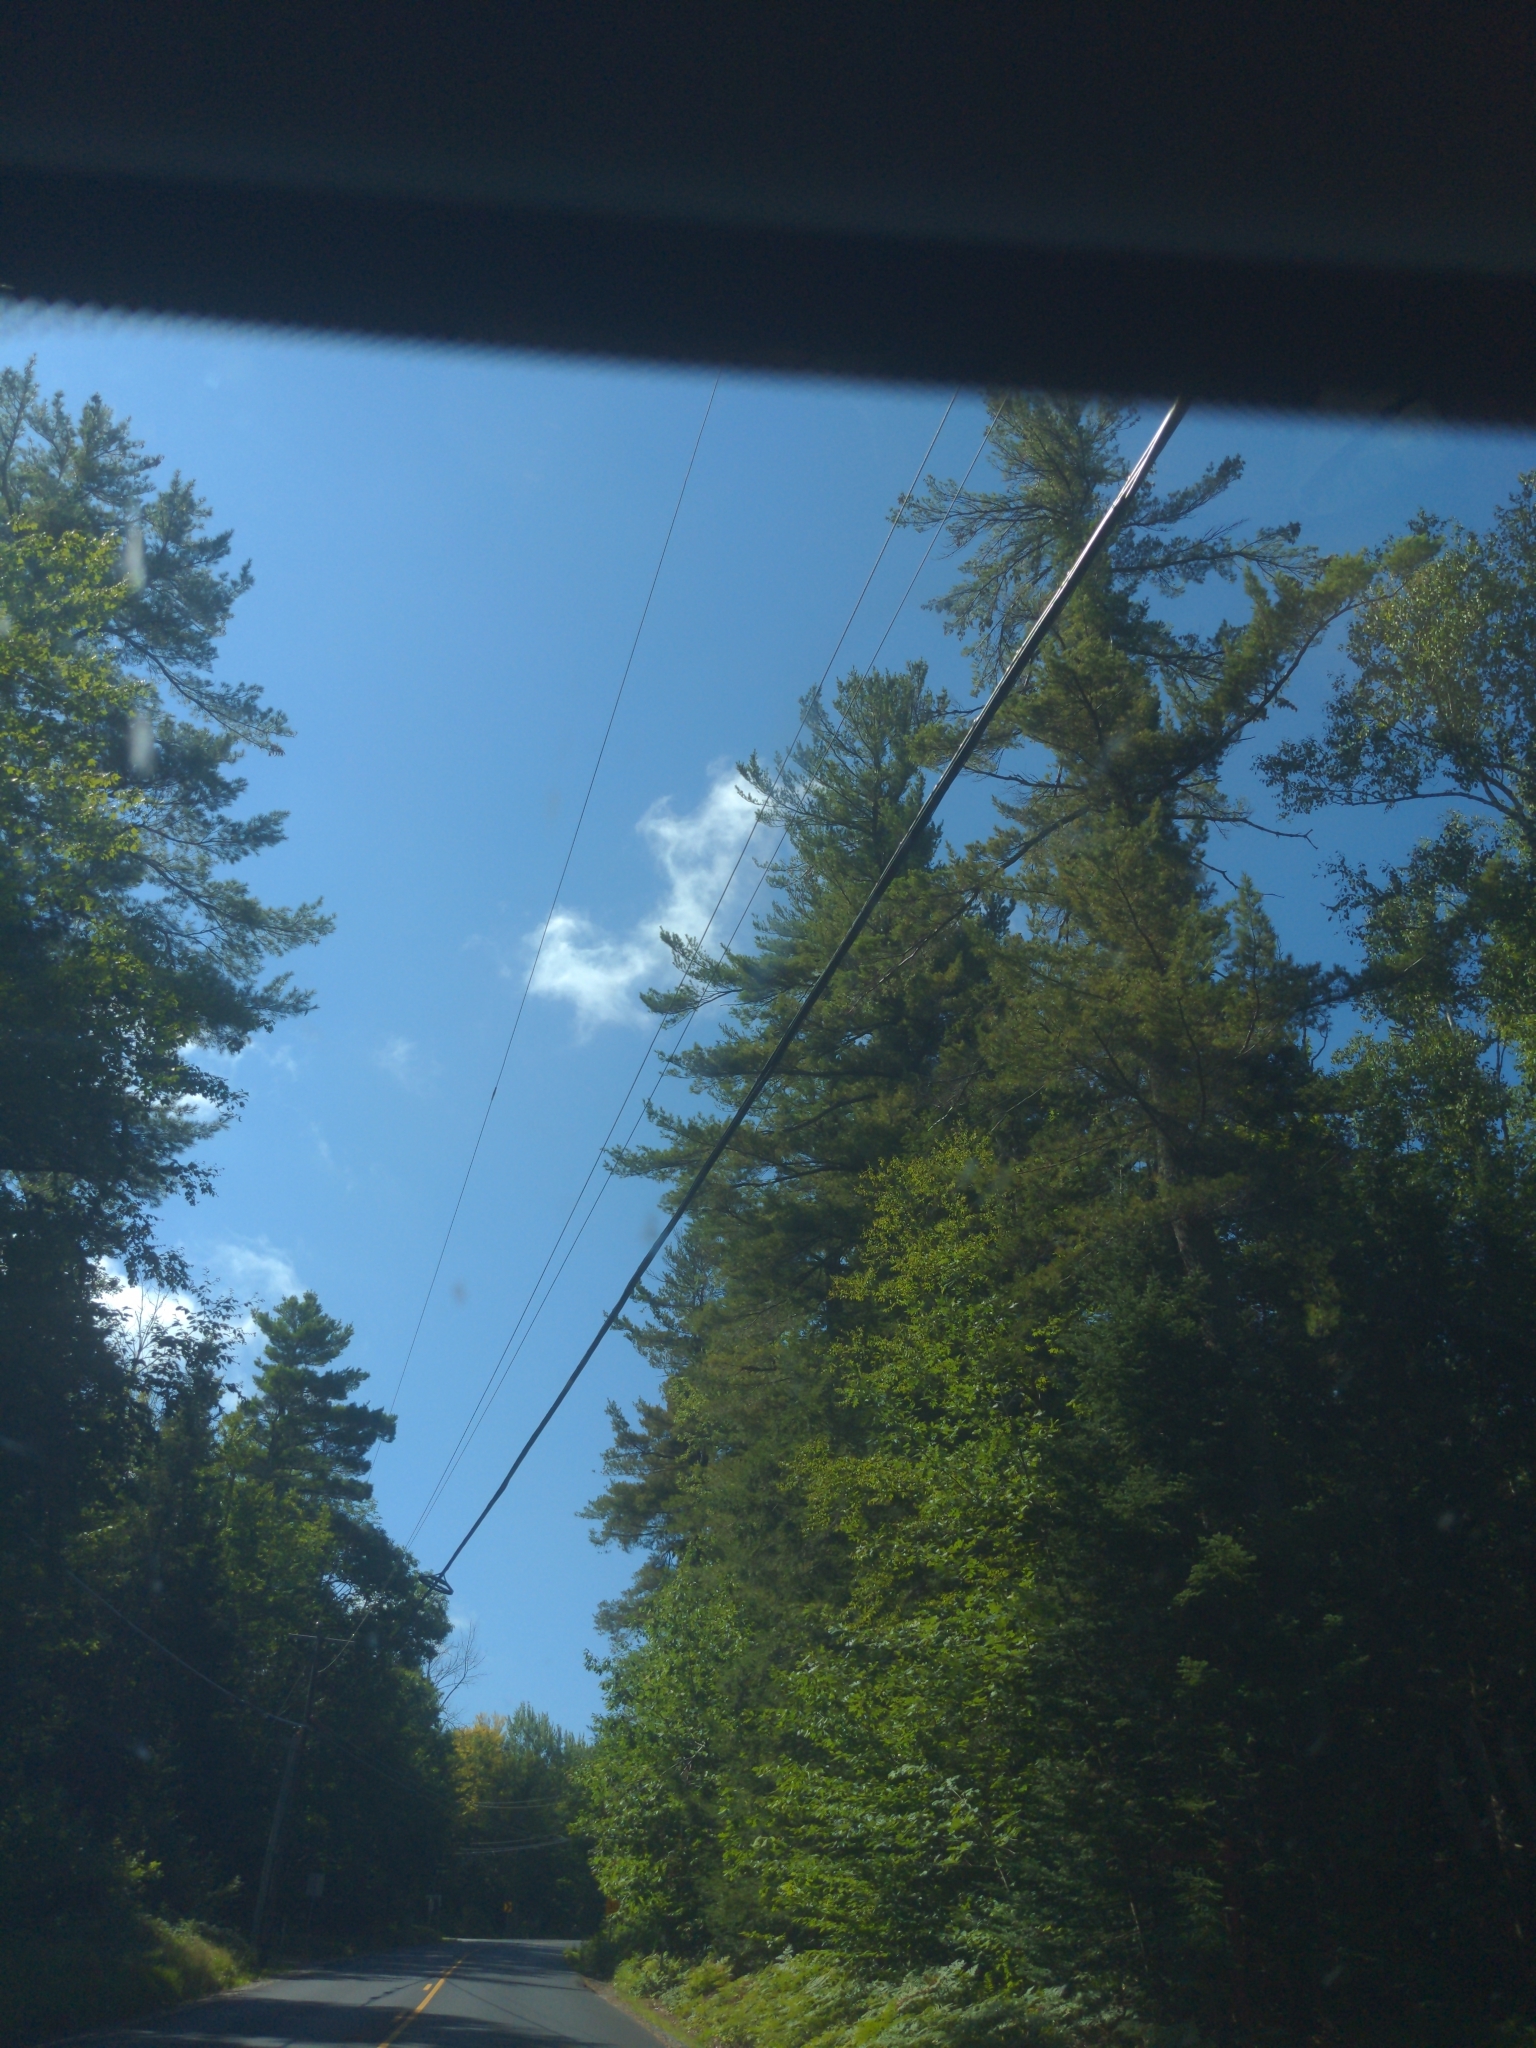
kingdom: Plantae
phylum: Tracheophyta
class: Pinopsida
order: Pinales
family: Pinaceae
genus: Pinus
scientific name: Pinus strobus
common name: Weymouth pine
